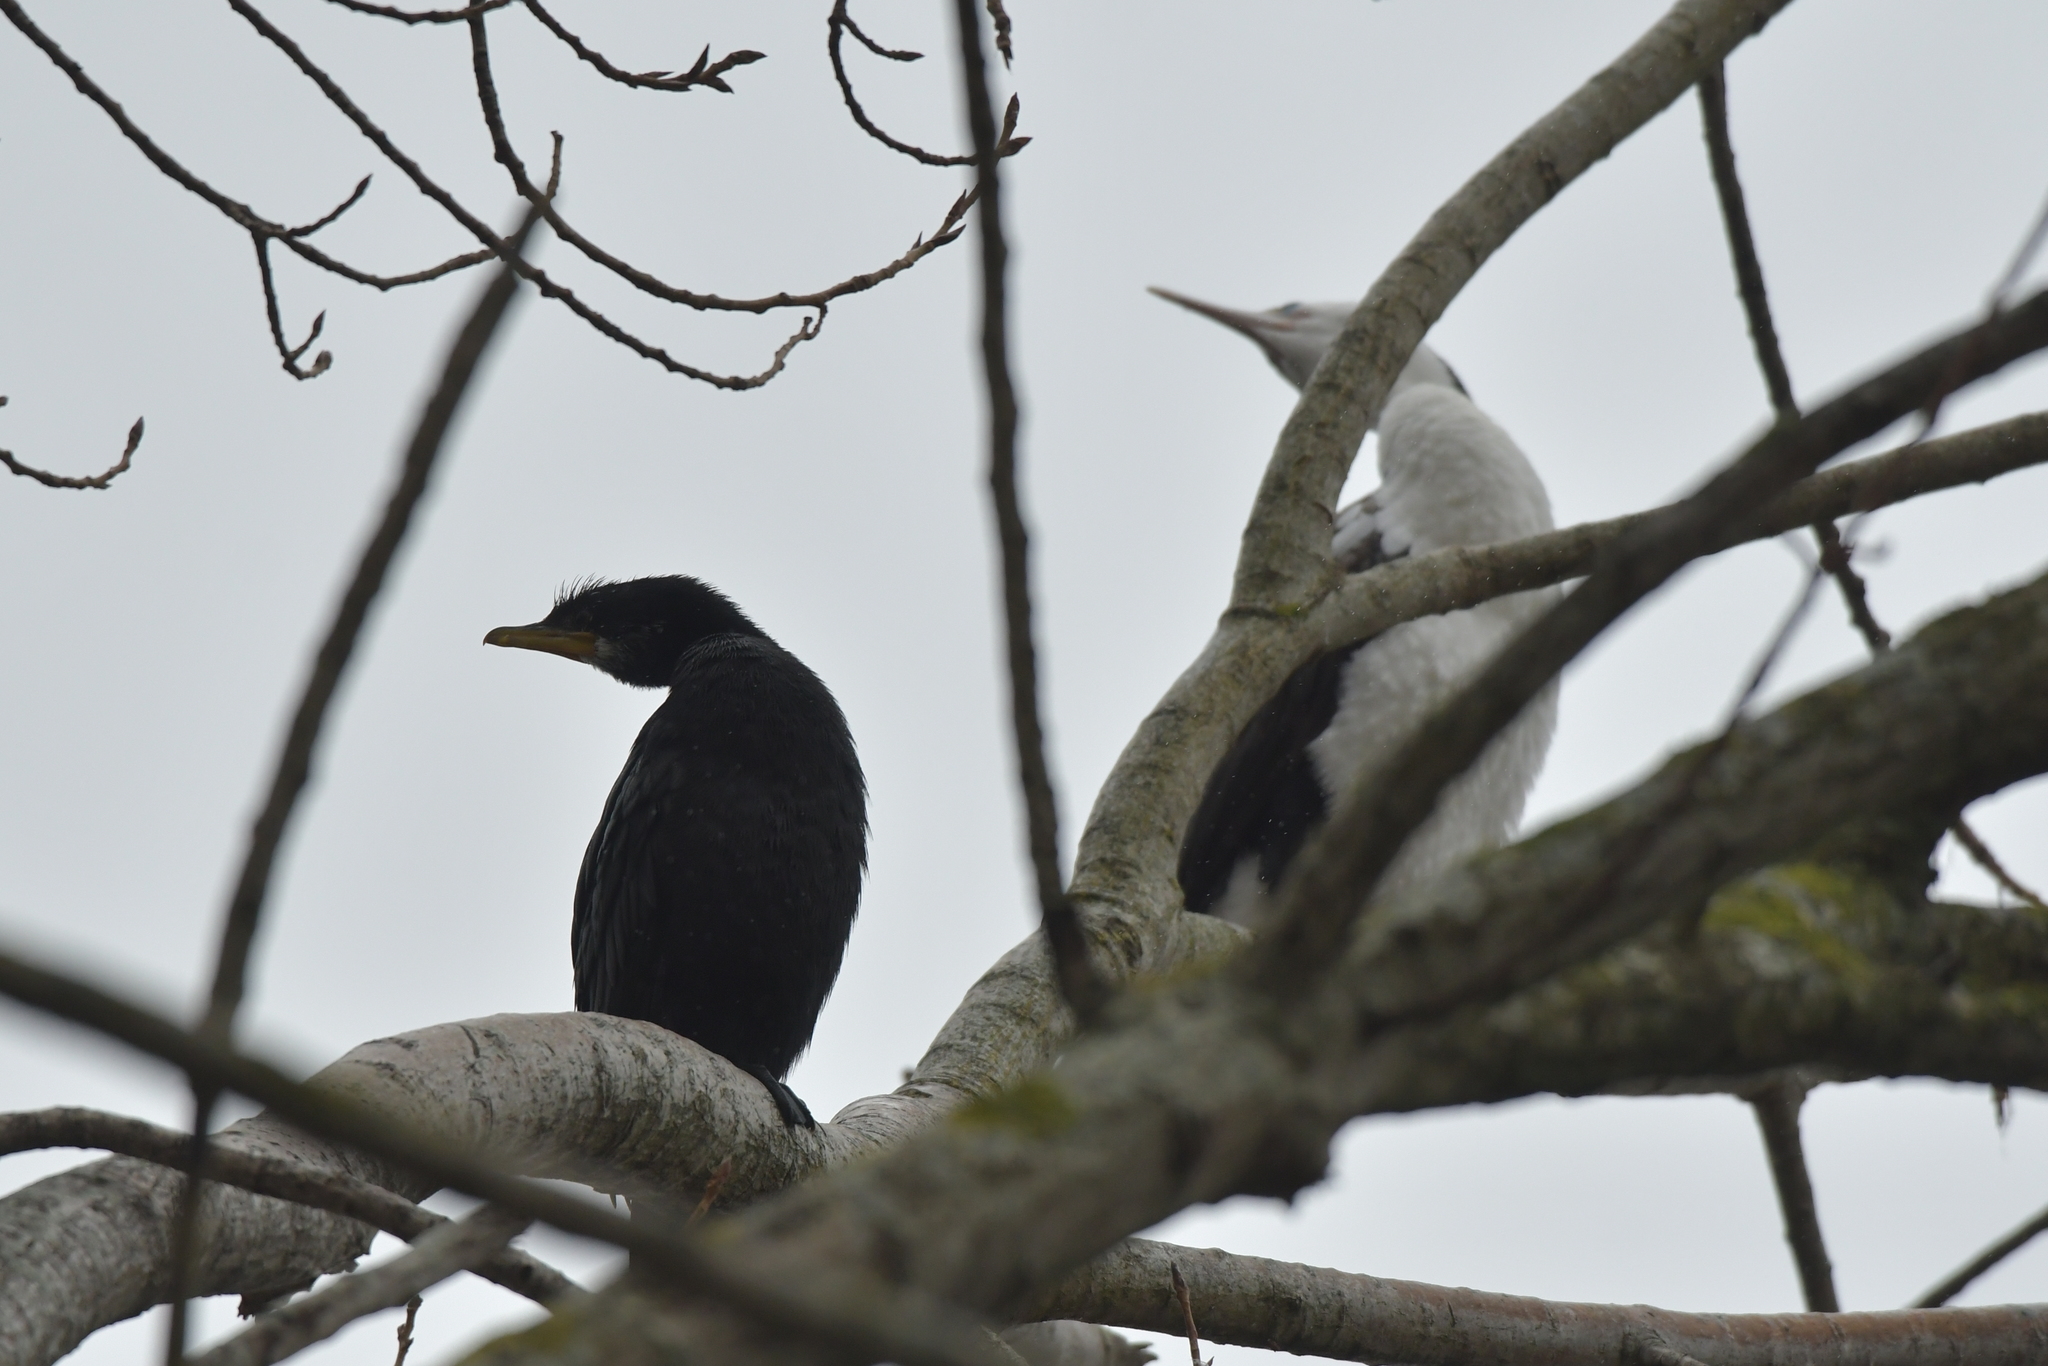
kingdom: Animalia
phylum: Chordata
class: Aves
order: Suliformes
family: Phalacrocoracidae
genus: Microcarbo
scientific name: Microcarbo melanoleucos
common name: Little pied cormorant
